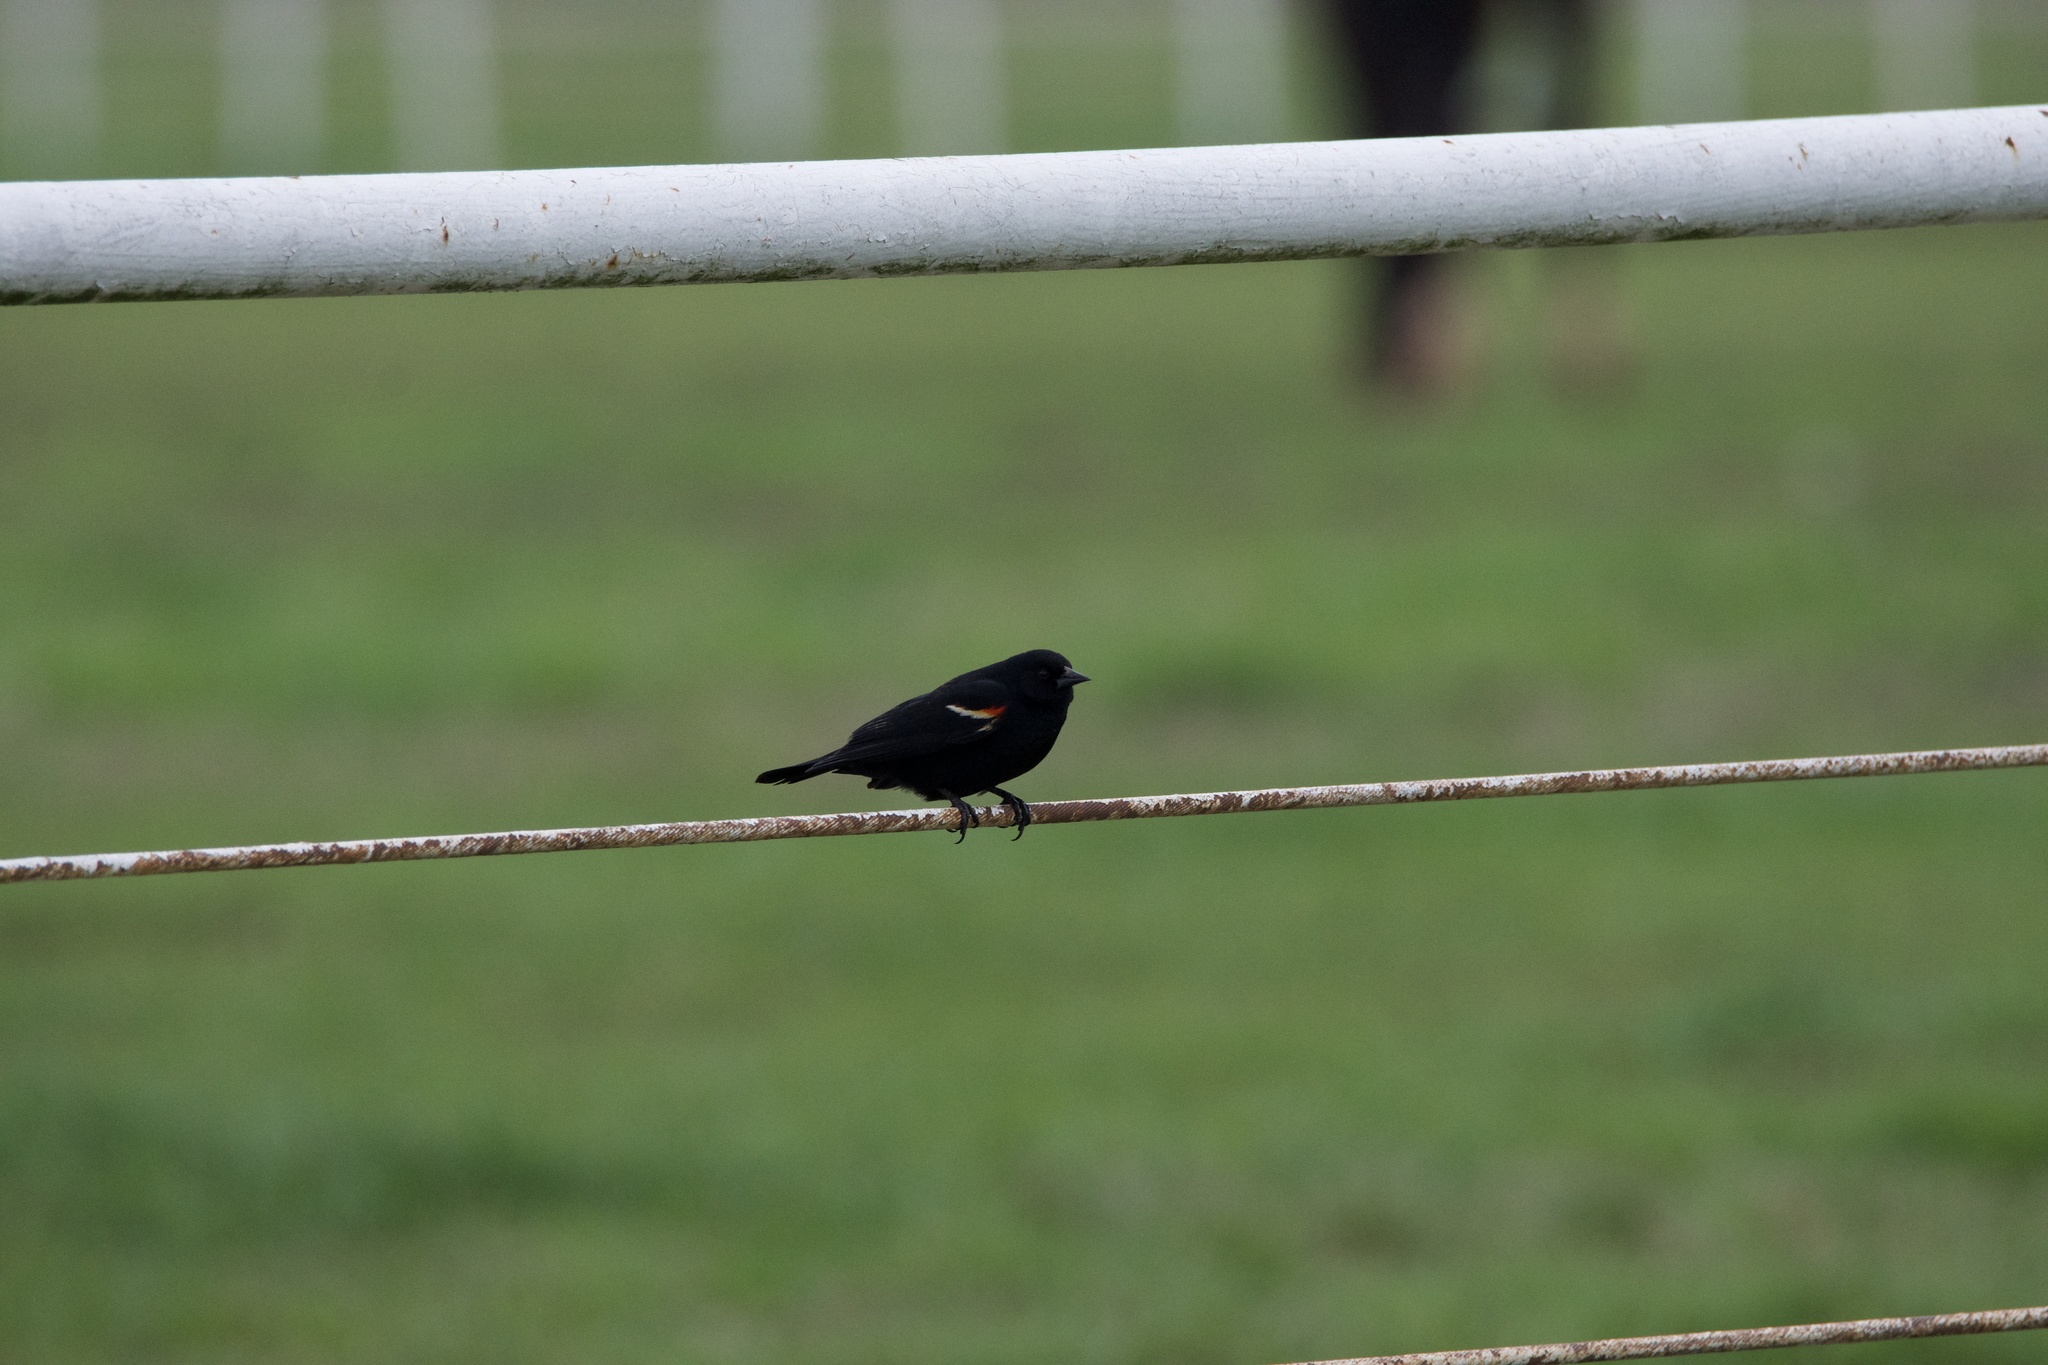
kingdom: Animalia
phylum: Chordata
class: Aves
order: Passeriformes
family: Icteridae
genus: Agelaius
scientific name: Agelaius phoeniceus
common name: Red-winged blackbird
